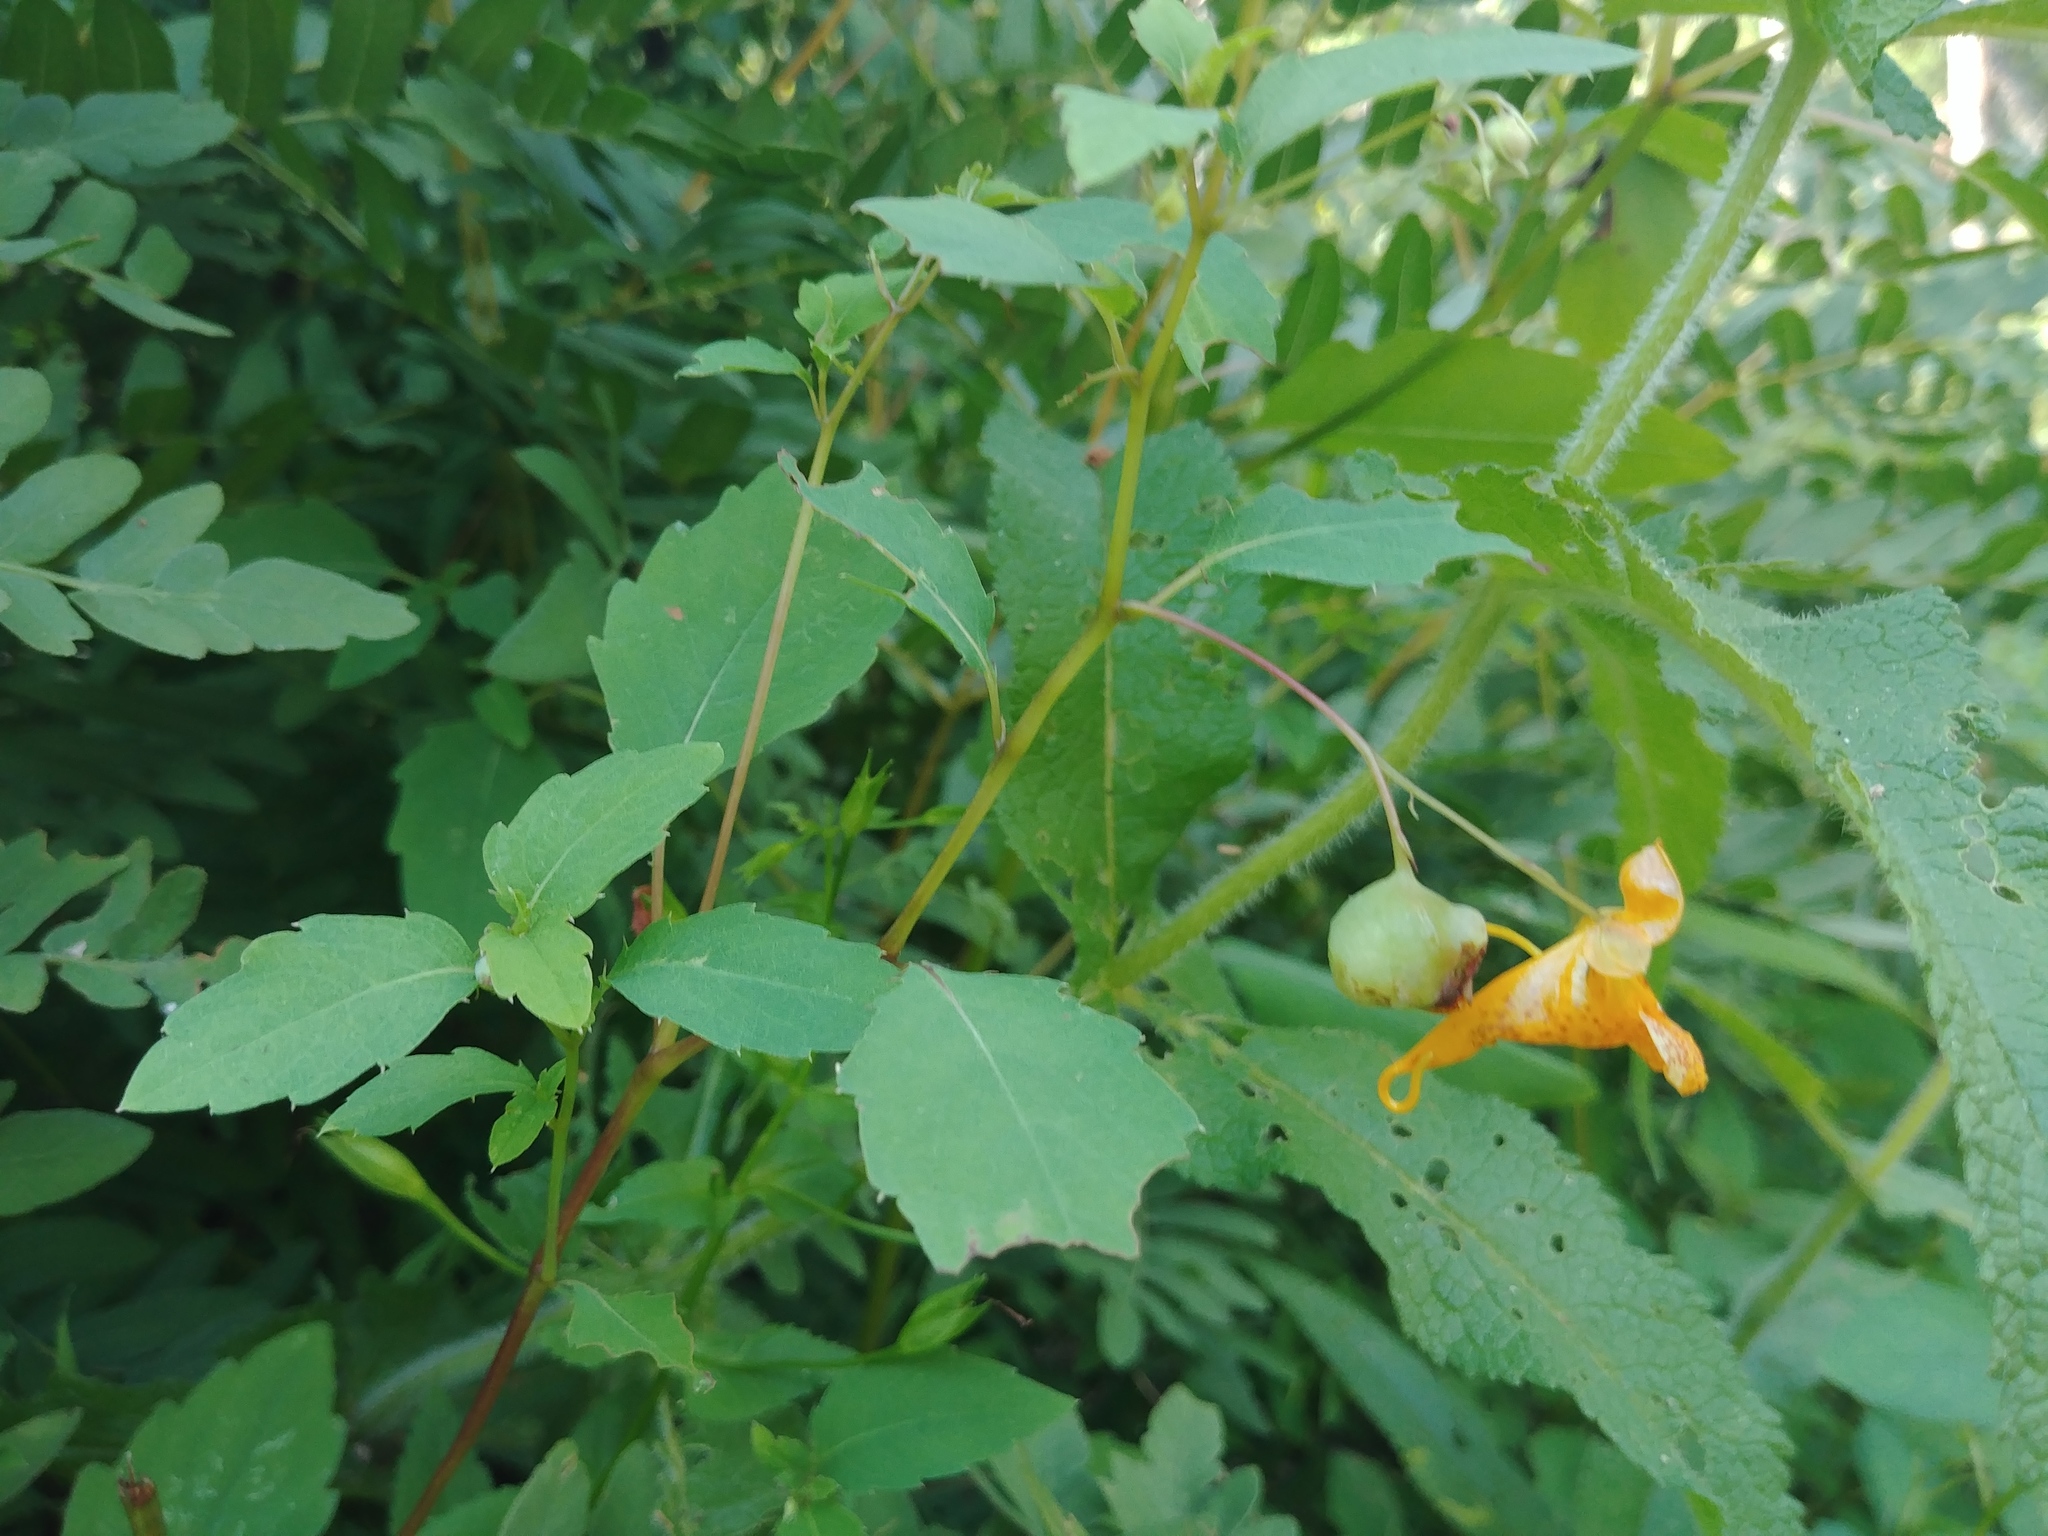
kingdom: Plantae
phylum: Tracheophyta
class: Magnoliopsida
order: Ericales
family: Balsaminaceae
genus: Impatiens
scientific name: Impatiens capensis
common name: Orange balsam
